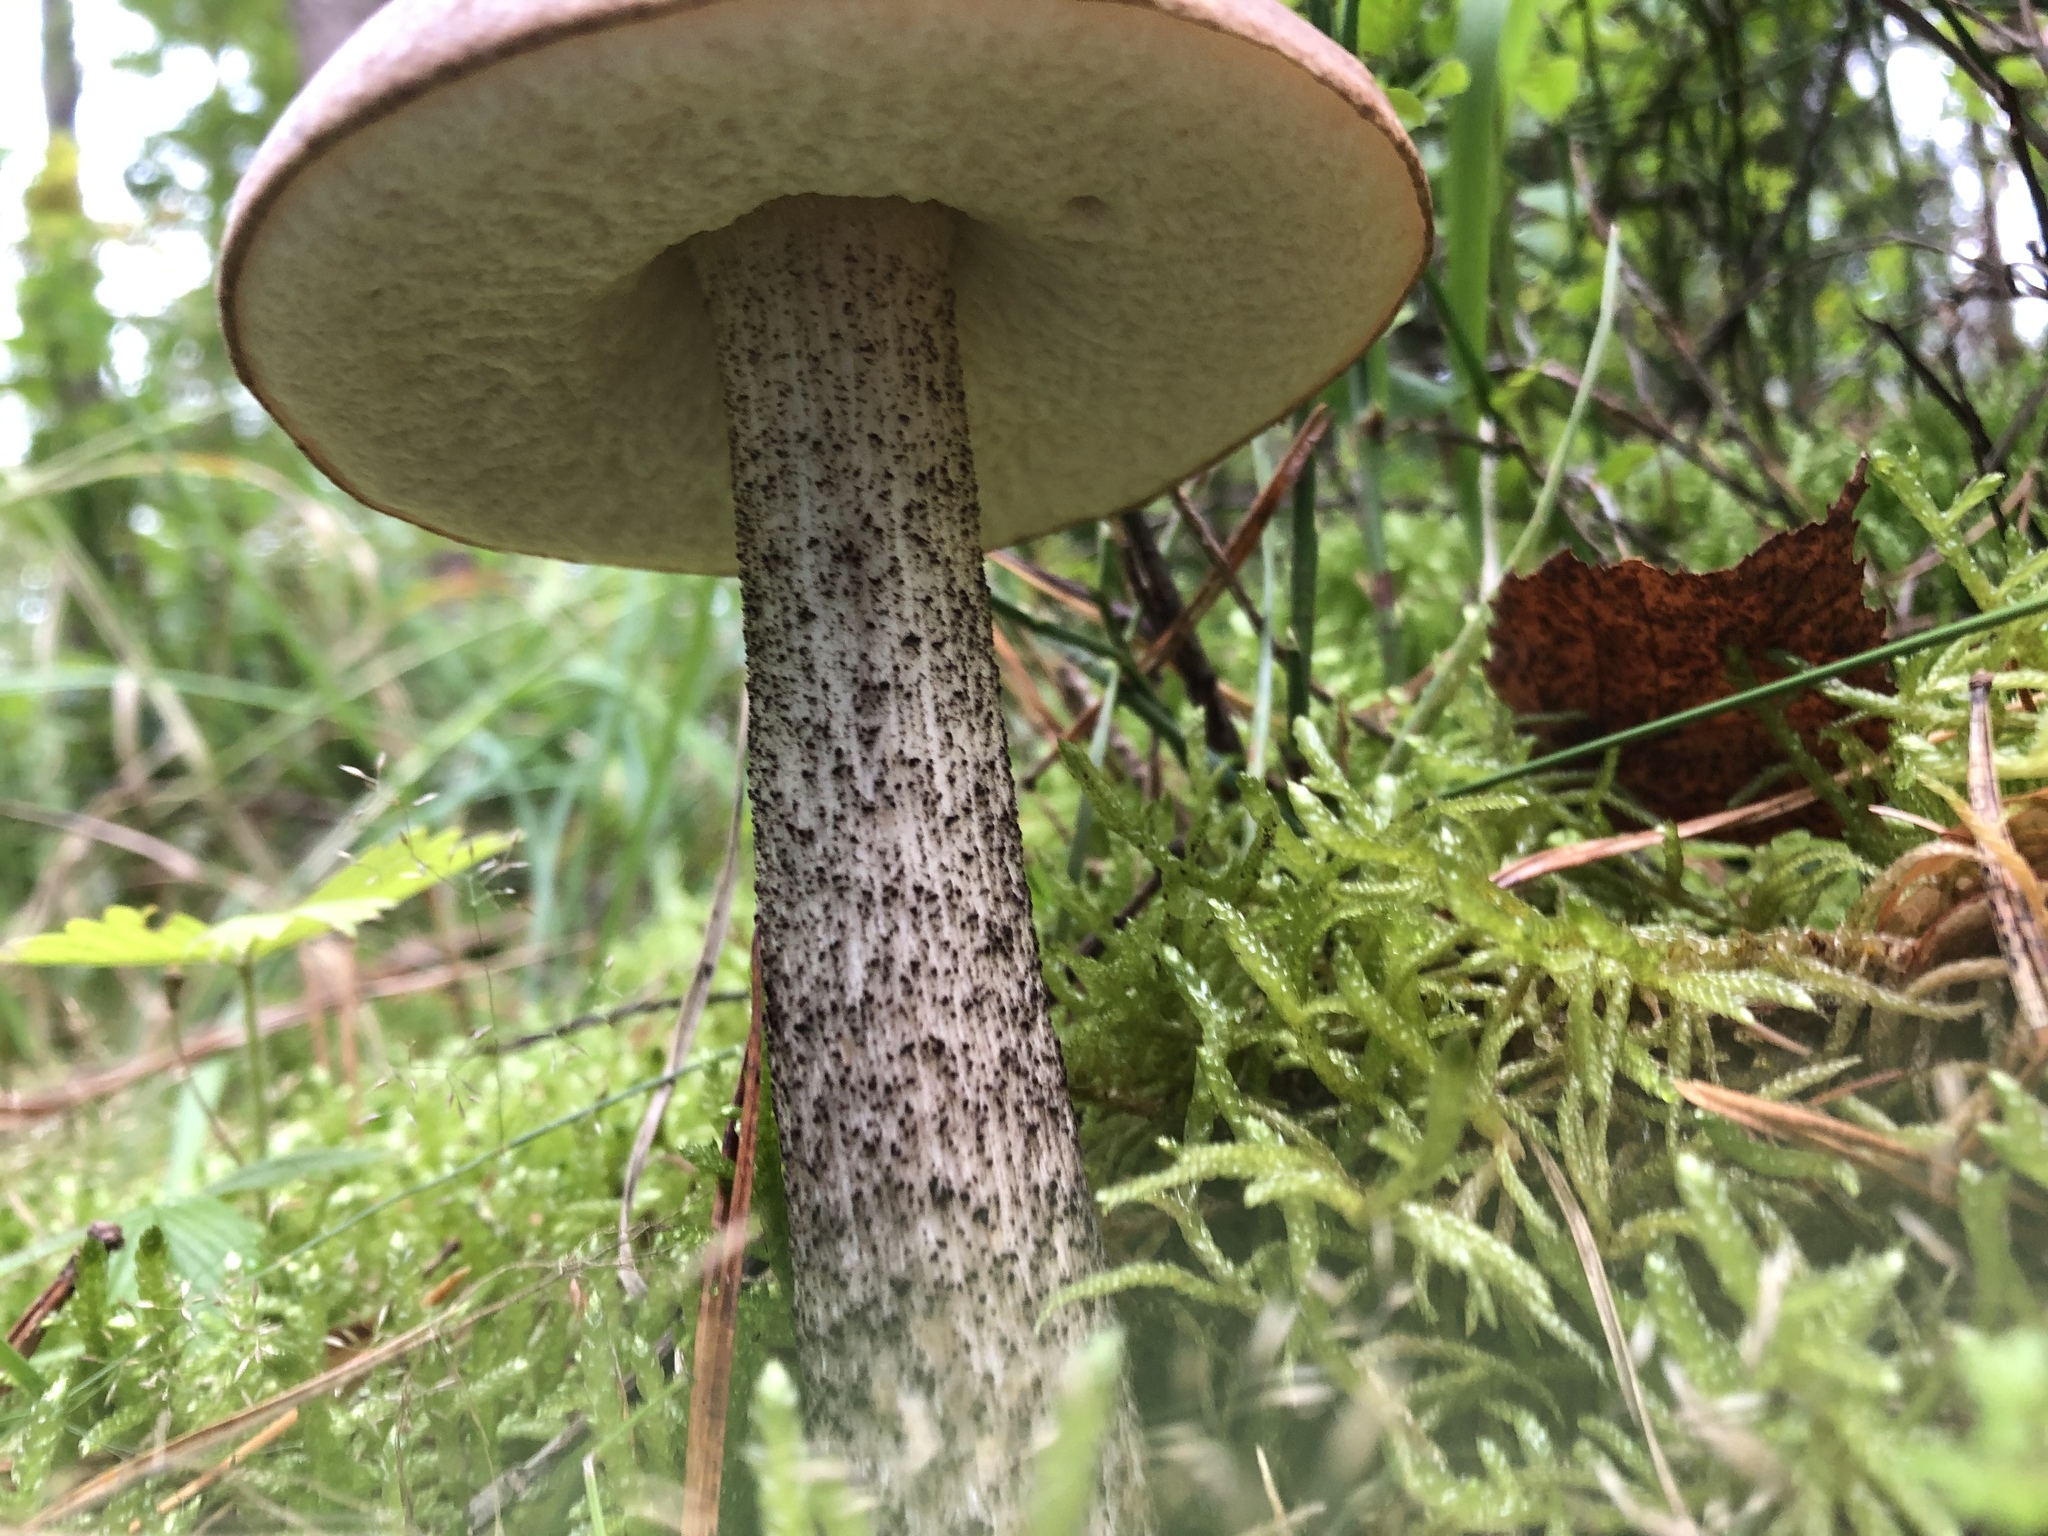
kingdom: Fungi
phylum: Basidiomycota
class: Agaricomycetes
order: Boletales
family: Boletaceae
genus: Leccinum
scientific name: Leccinum scabrum
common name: Blushing bolete
